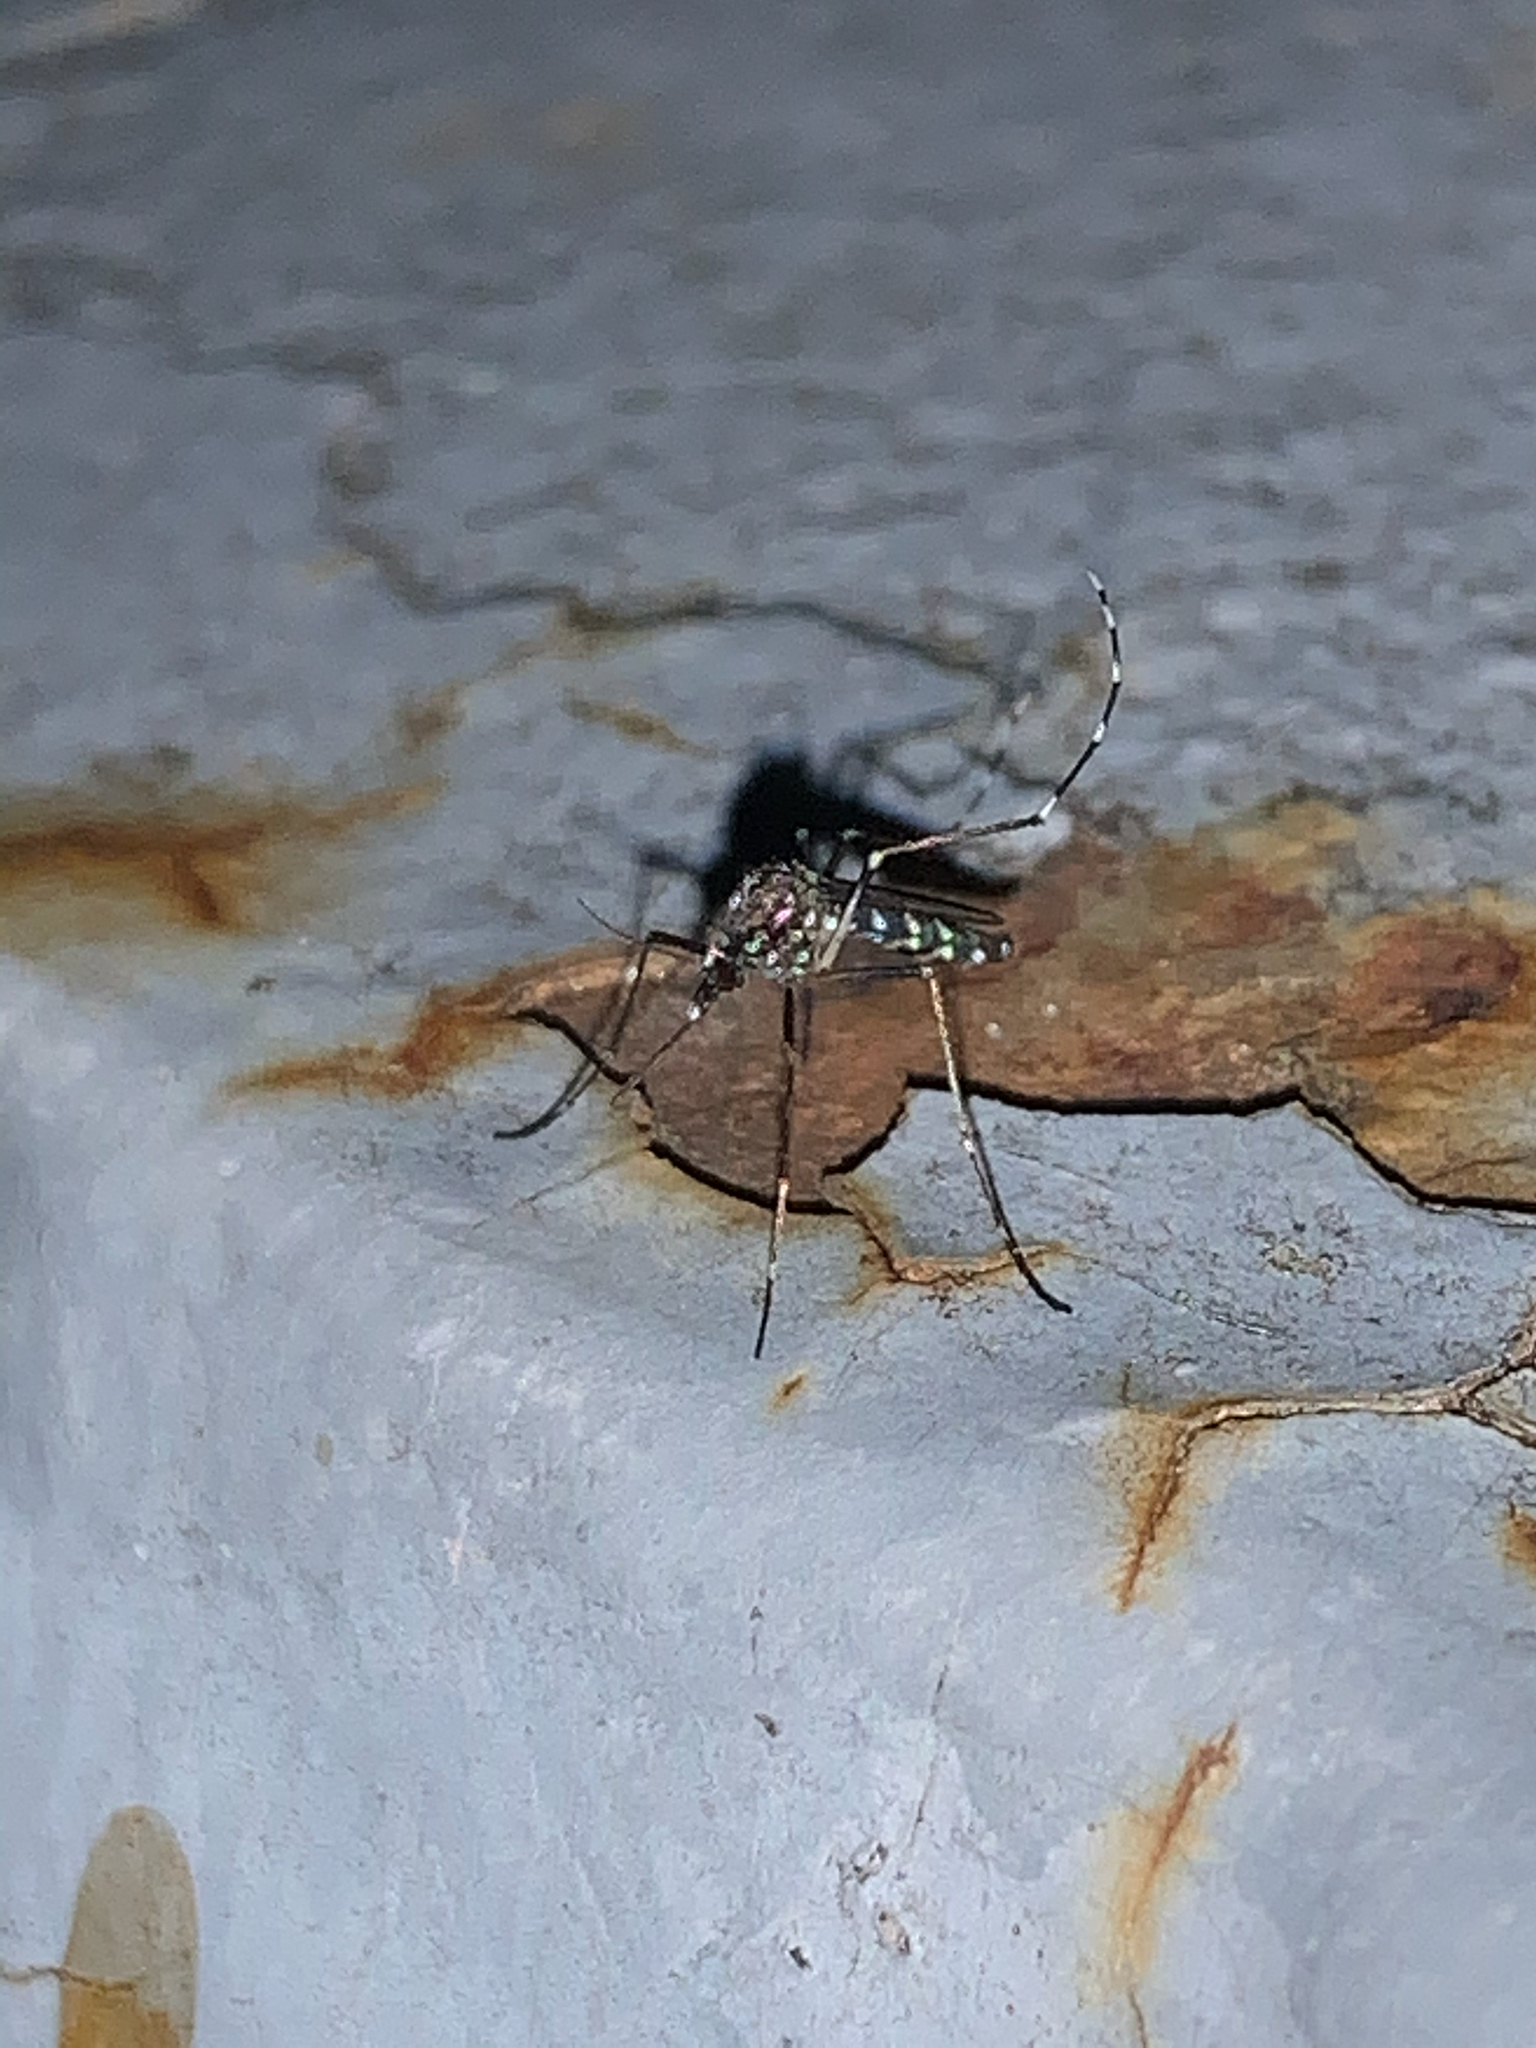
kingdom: Animalia
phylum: Arthropoda
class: Insecta
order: Diptera
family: Culicidae
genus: Aedes
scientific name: Aedes albopictus
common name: Tiger mosquito
